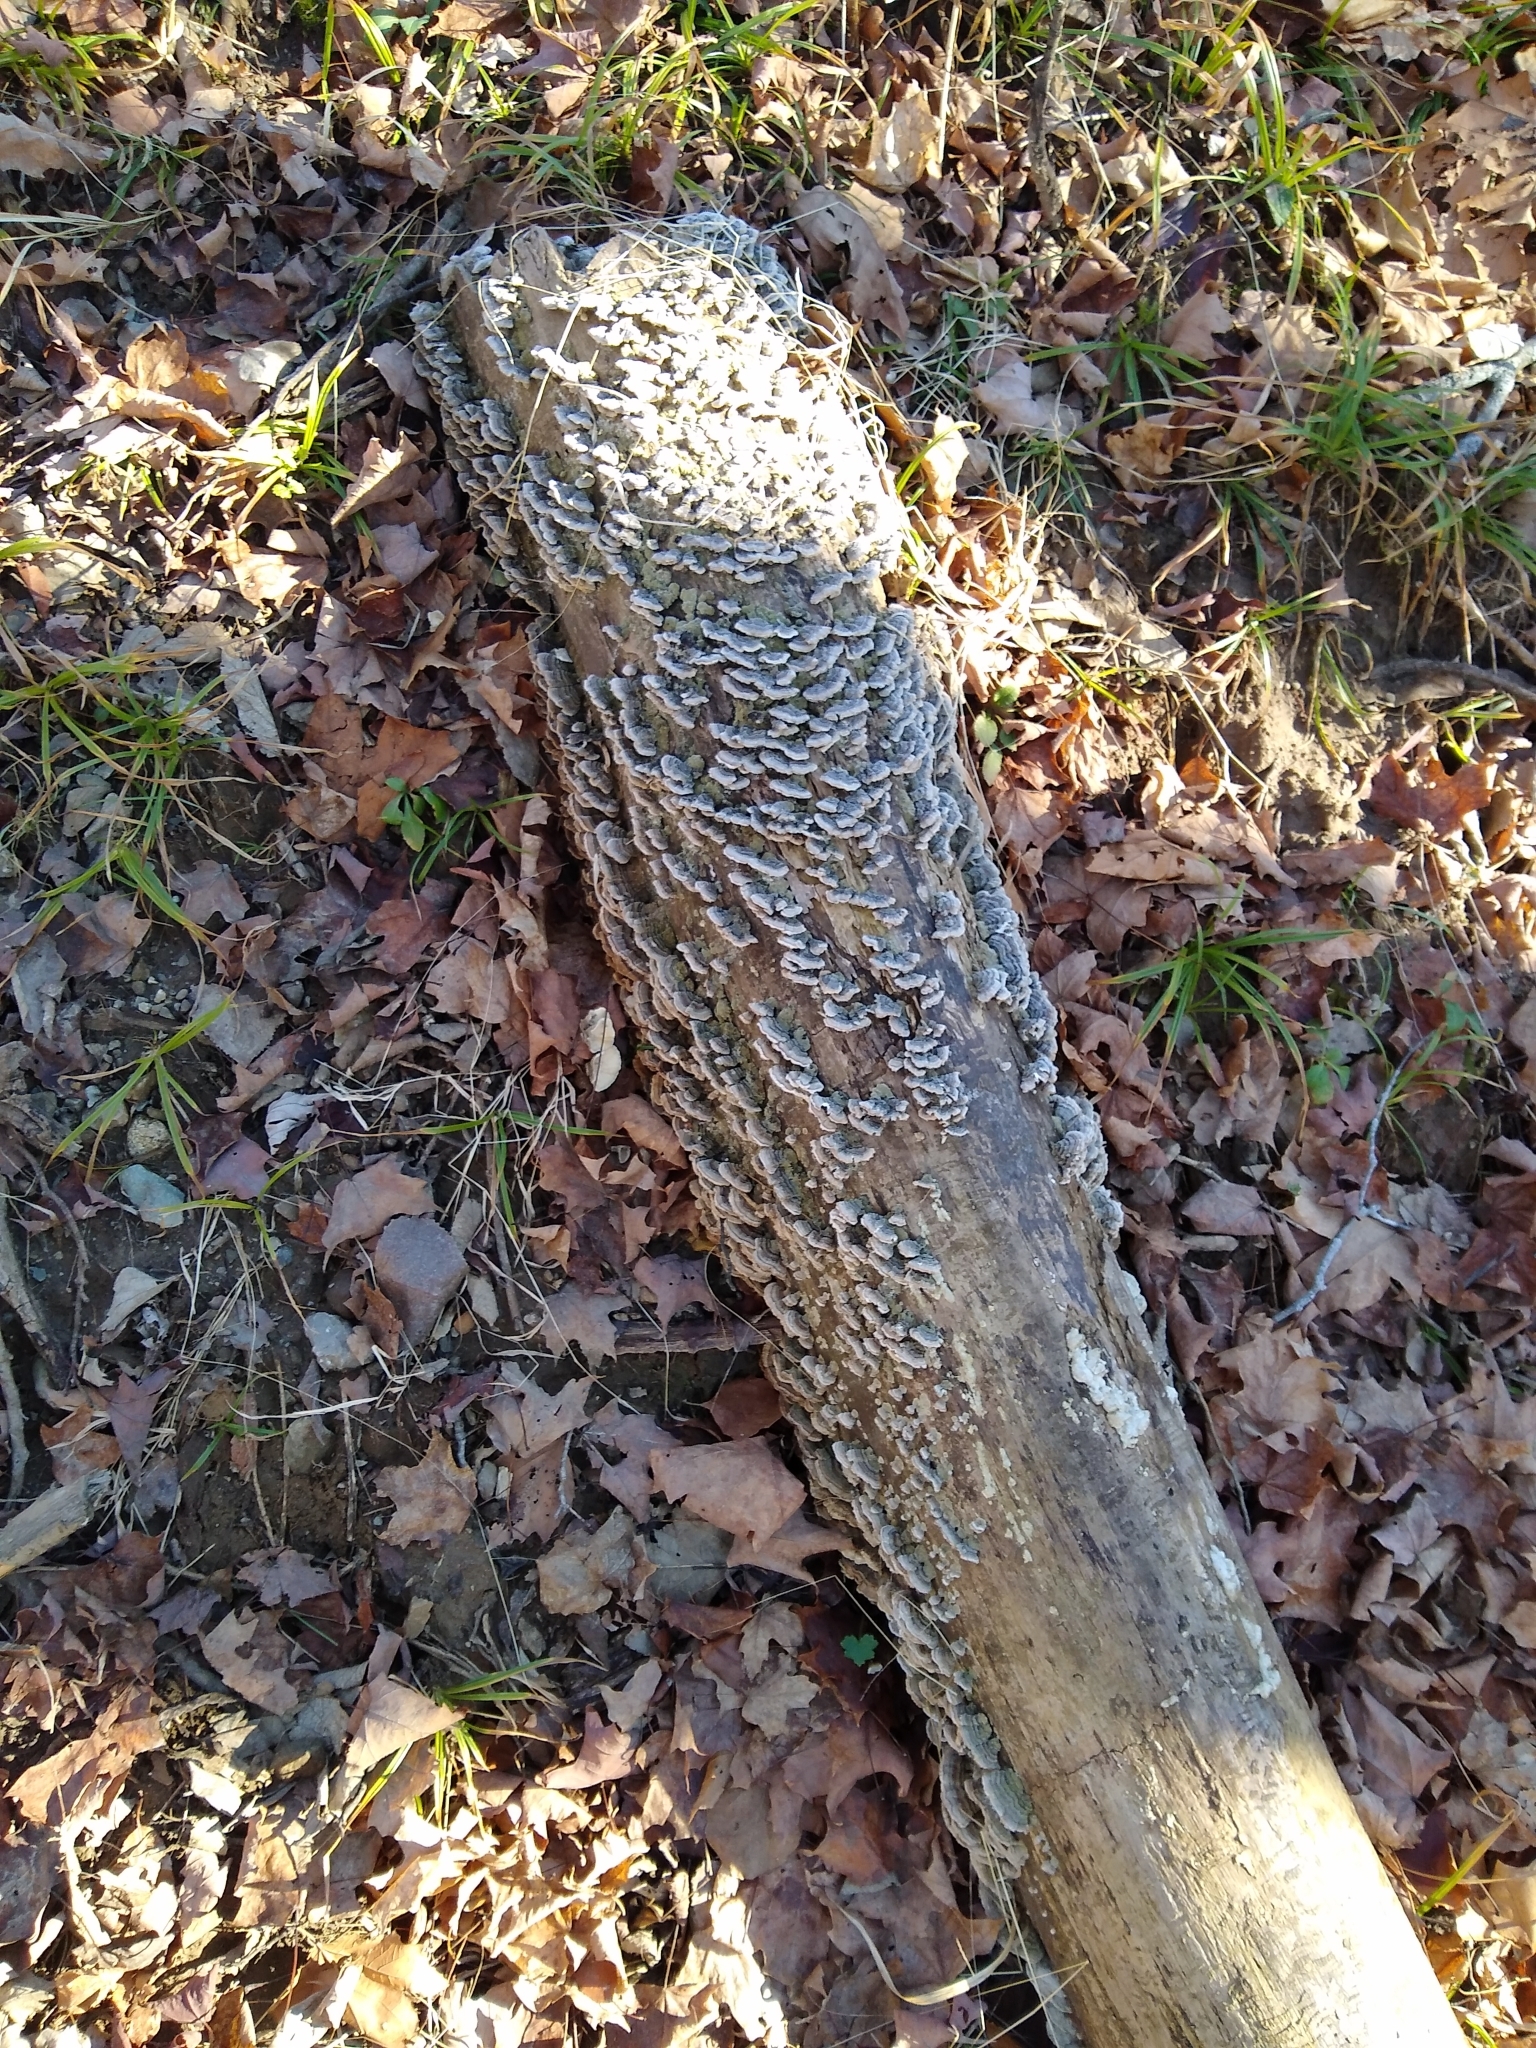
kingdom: Fungi
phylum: Basidiomycota
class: Agaricomycetes
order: Polyporales
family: Polyporaceae
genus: Trametes
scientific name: Trametes versicolor
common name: Turkeytail
